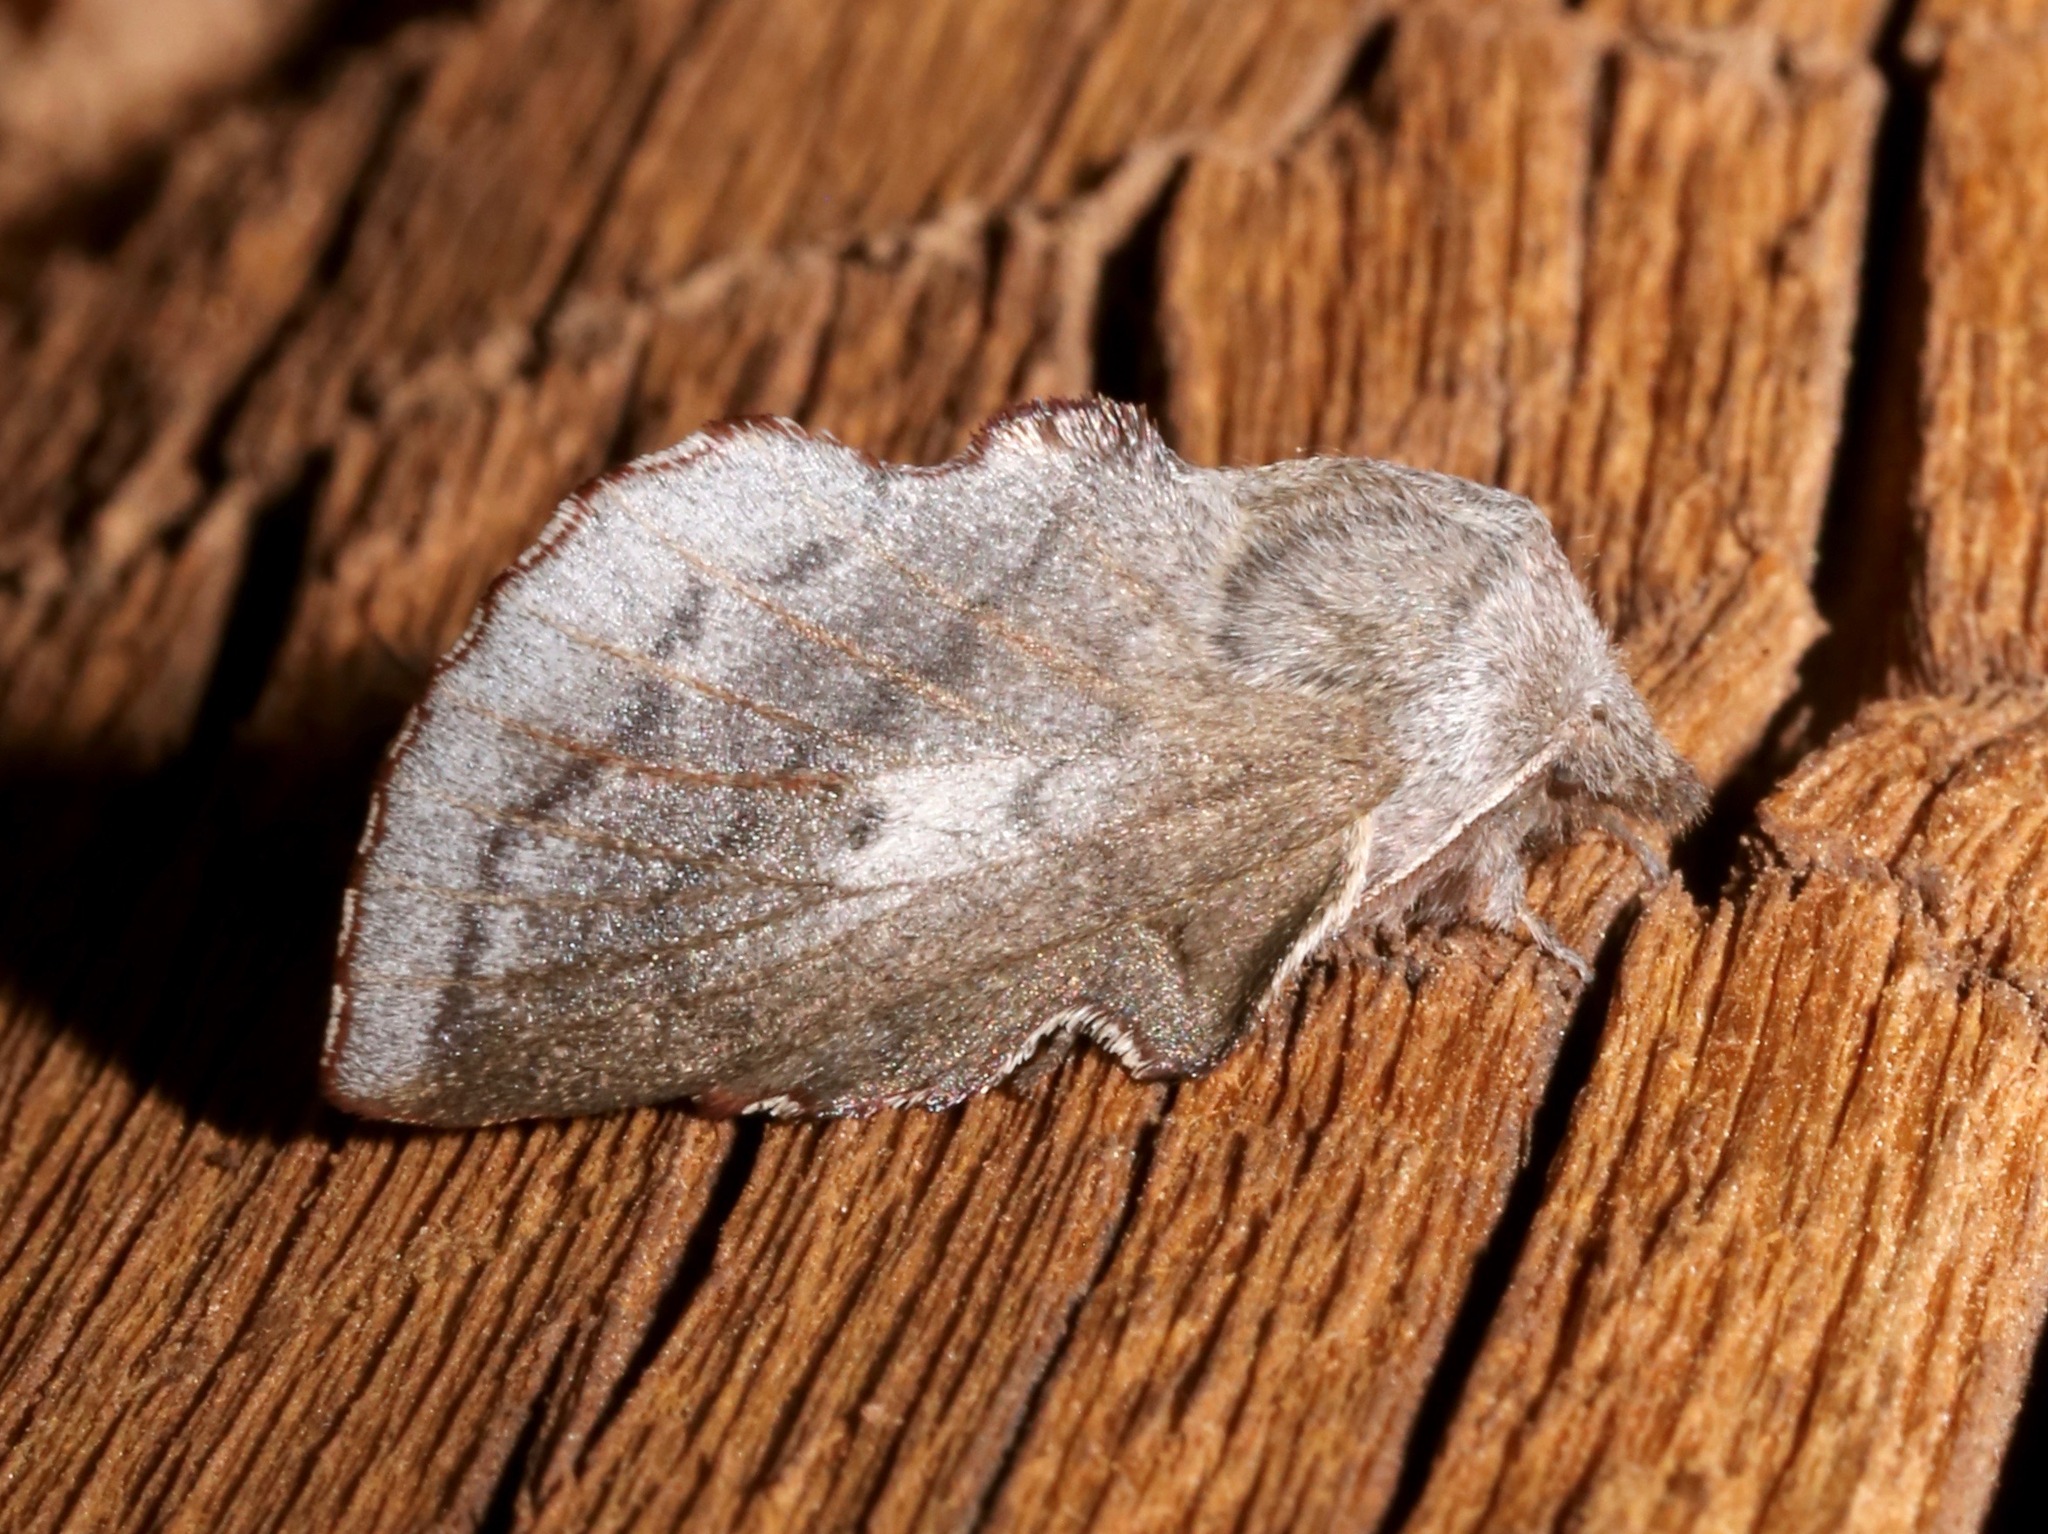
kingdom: Animalia
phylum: Arthropoda
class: Insecta
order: Lepidoptera
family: Lasiocampidae
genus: Phyllodesma
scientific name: Phyllodesma americana
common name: American lappet moth
